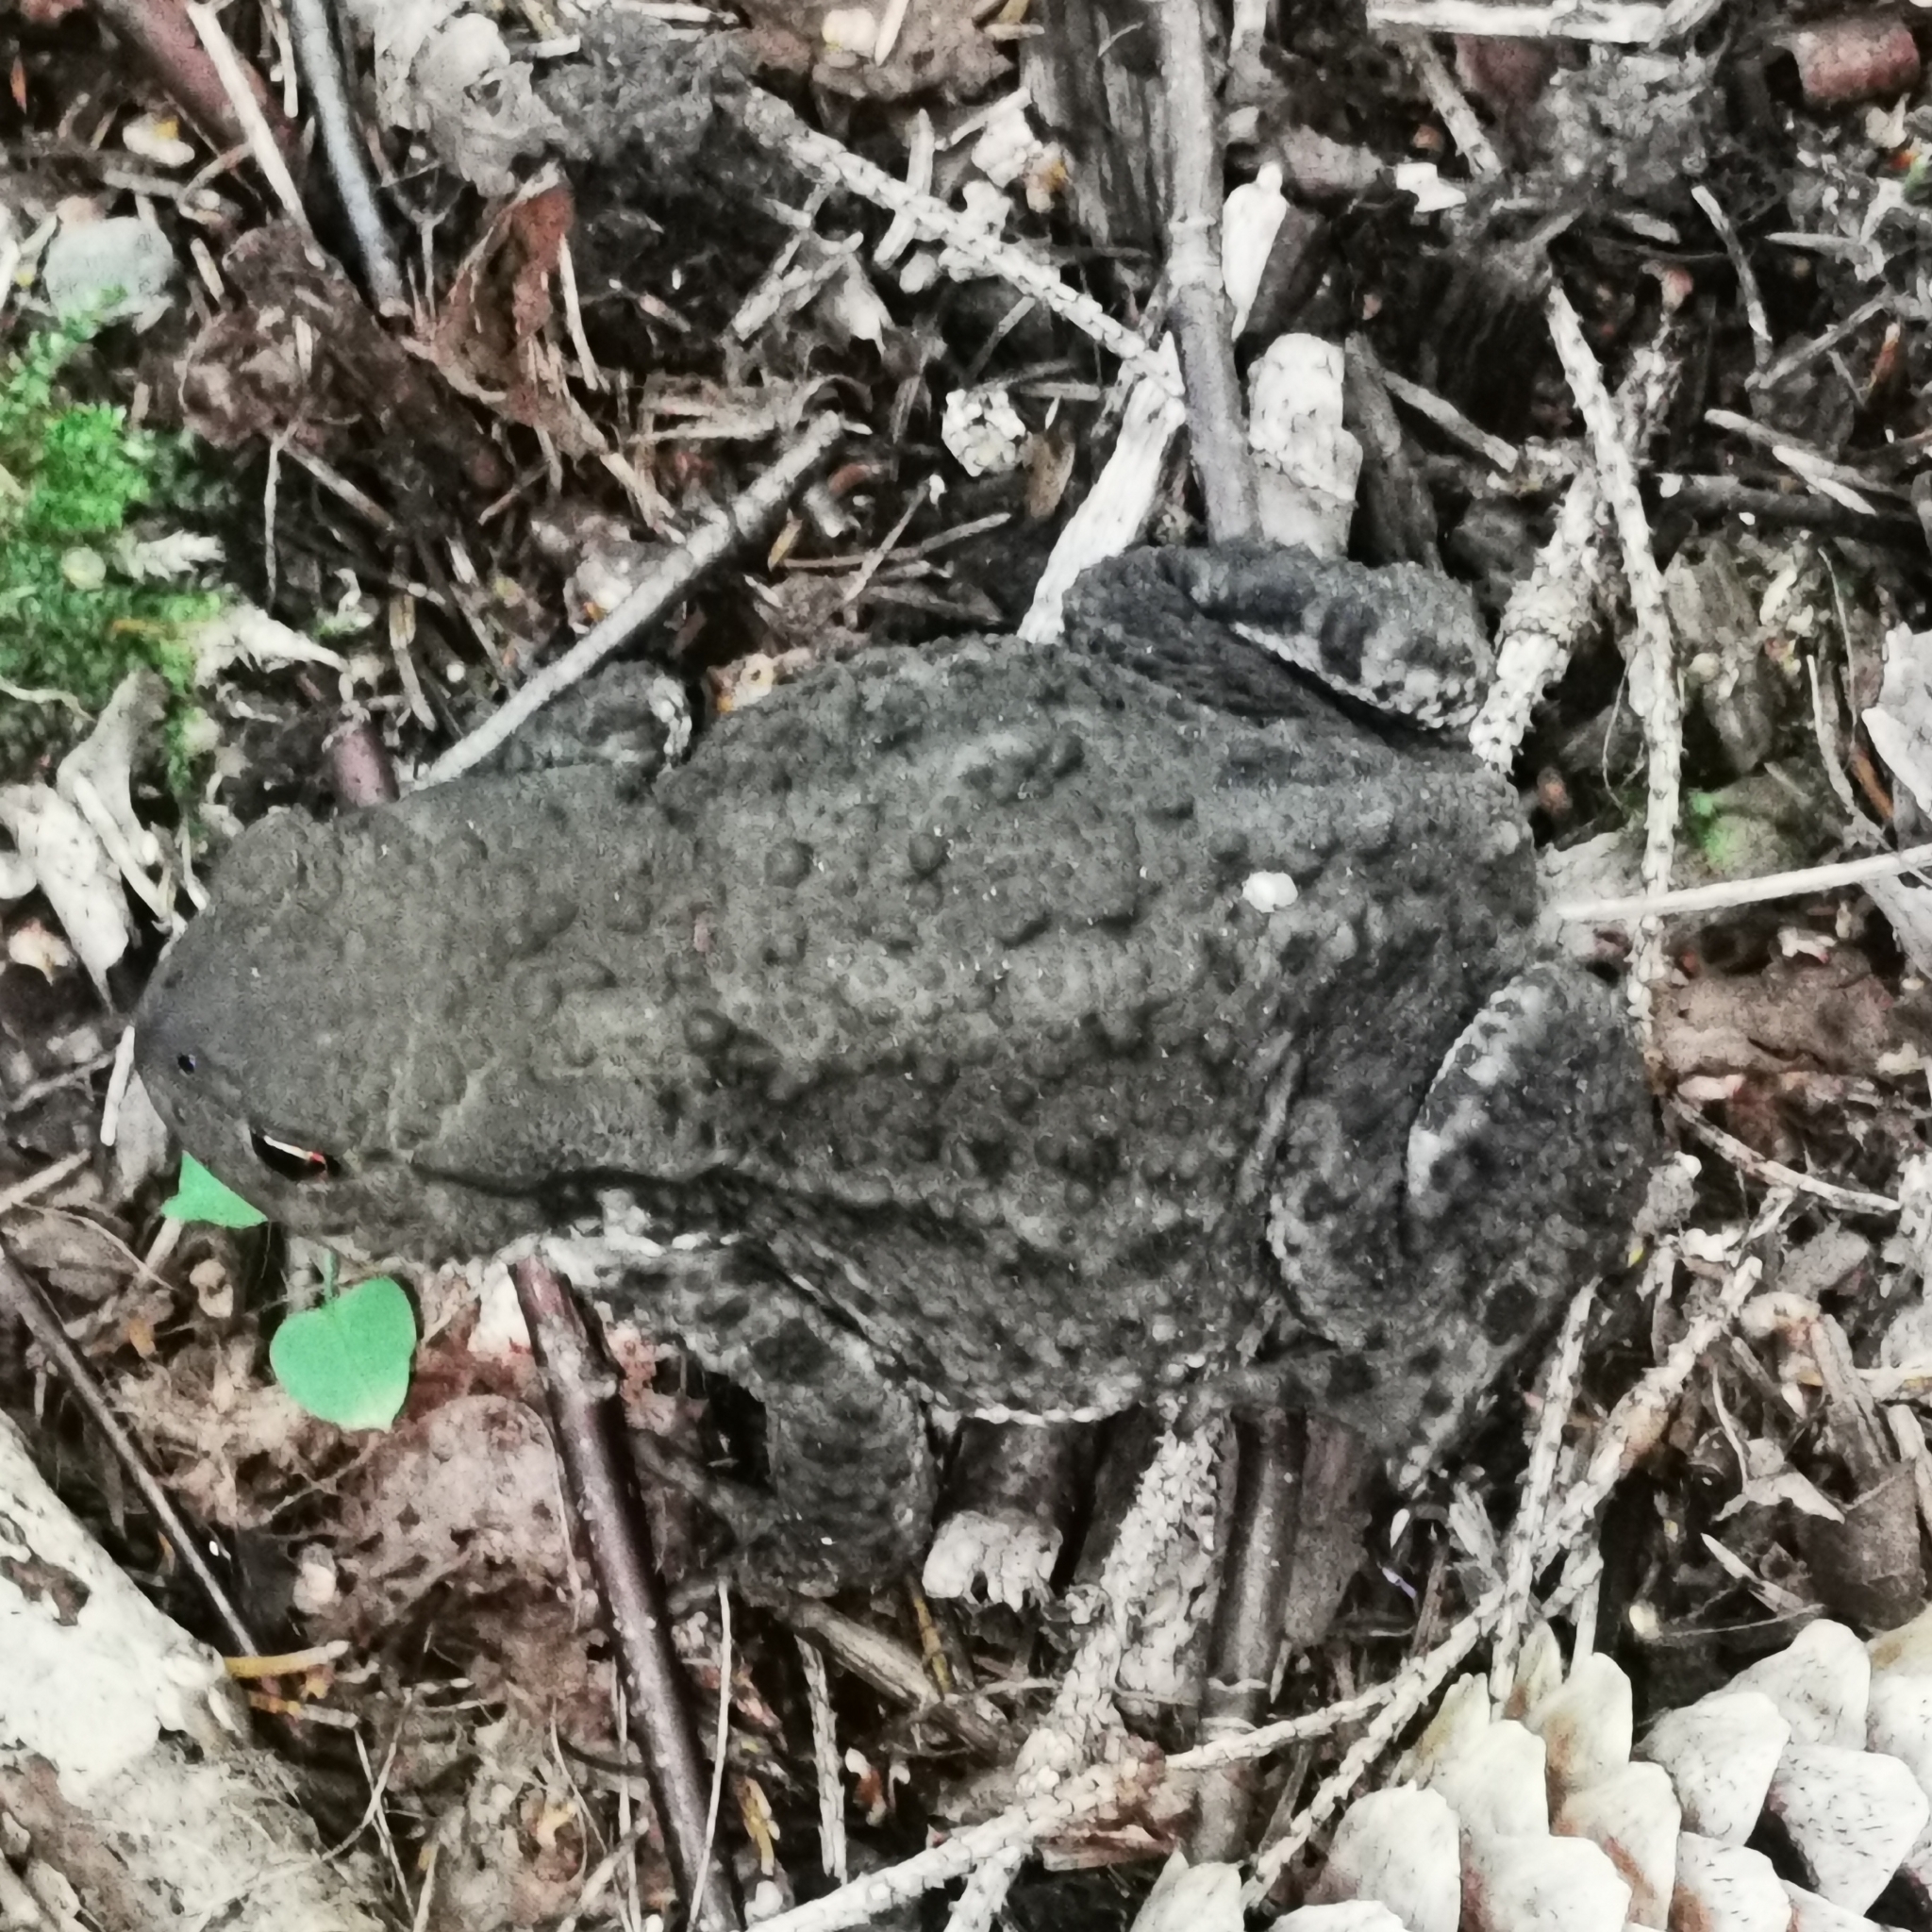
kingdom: Animalia
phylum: Chordata
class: Amphibia
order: Anura
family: Bufonidae
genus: Bufo
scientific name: Bufo bufo
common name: Common toad
